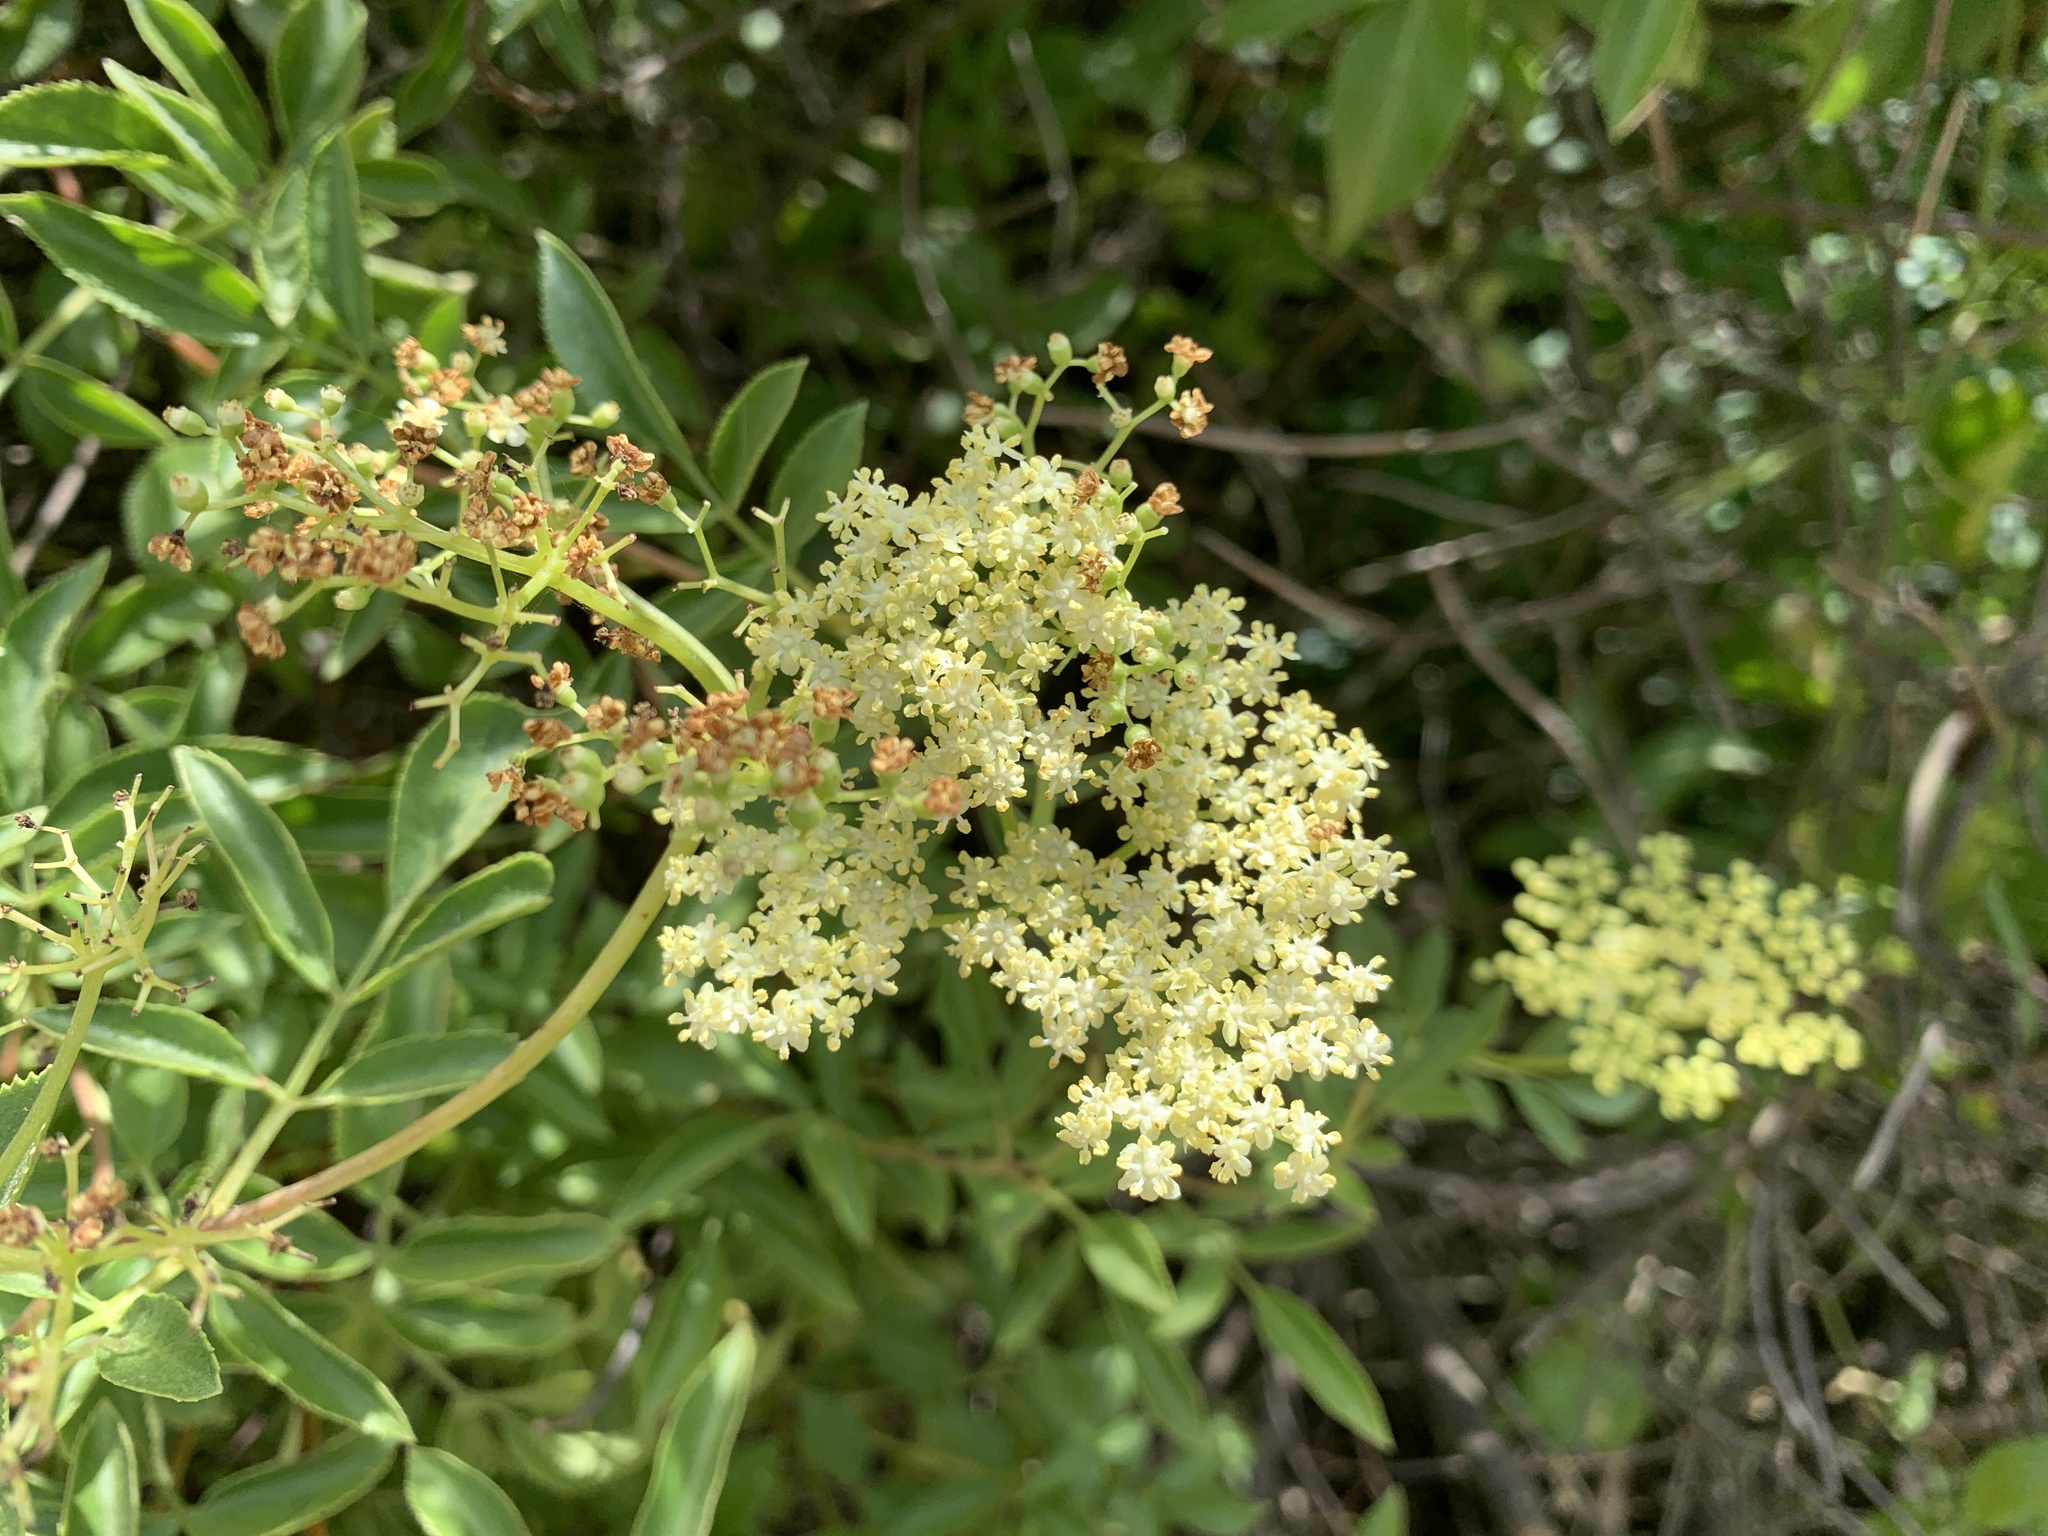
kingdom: Plantae
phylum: Tracheophyta
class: Magnoliopsida
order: Dipsacales
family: Viburnaceae
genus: Sambucus
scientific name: Sambucus cerulea
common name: Blue elder
